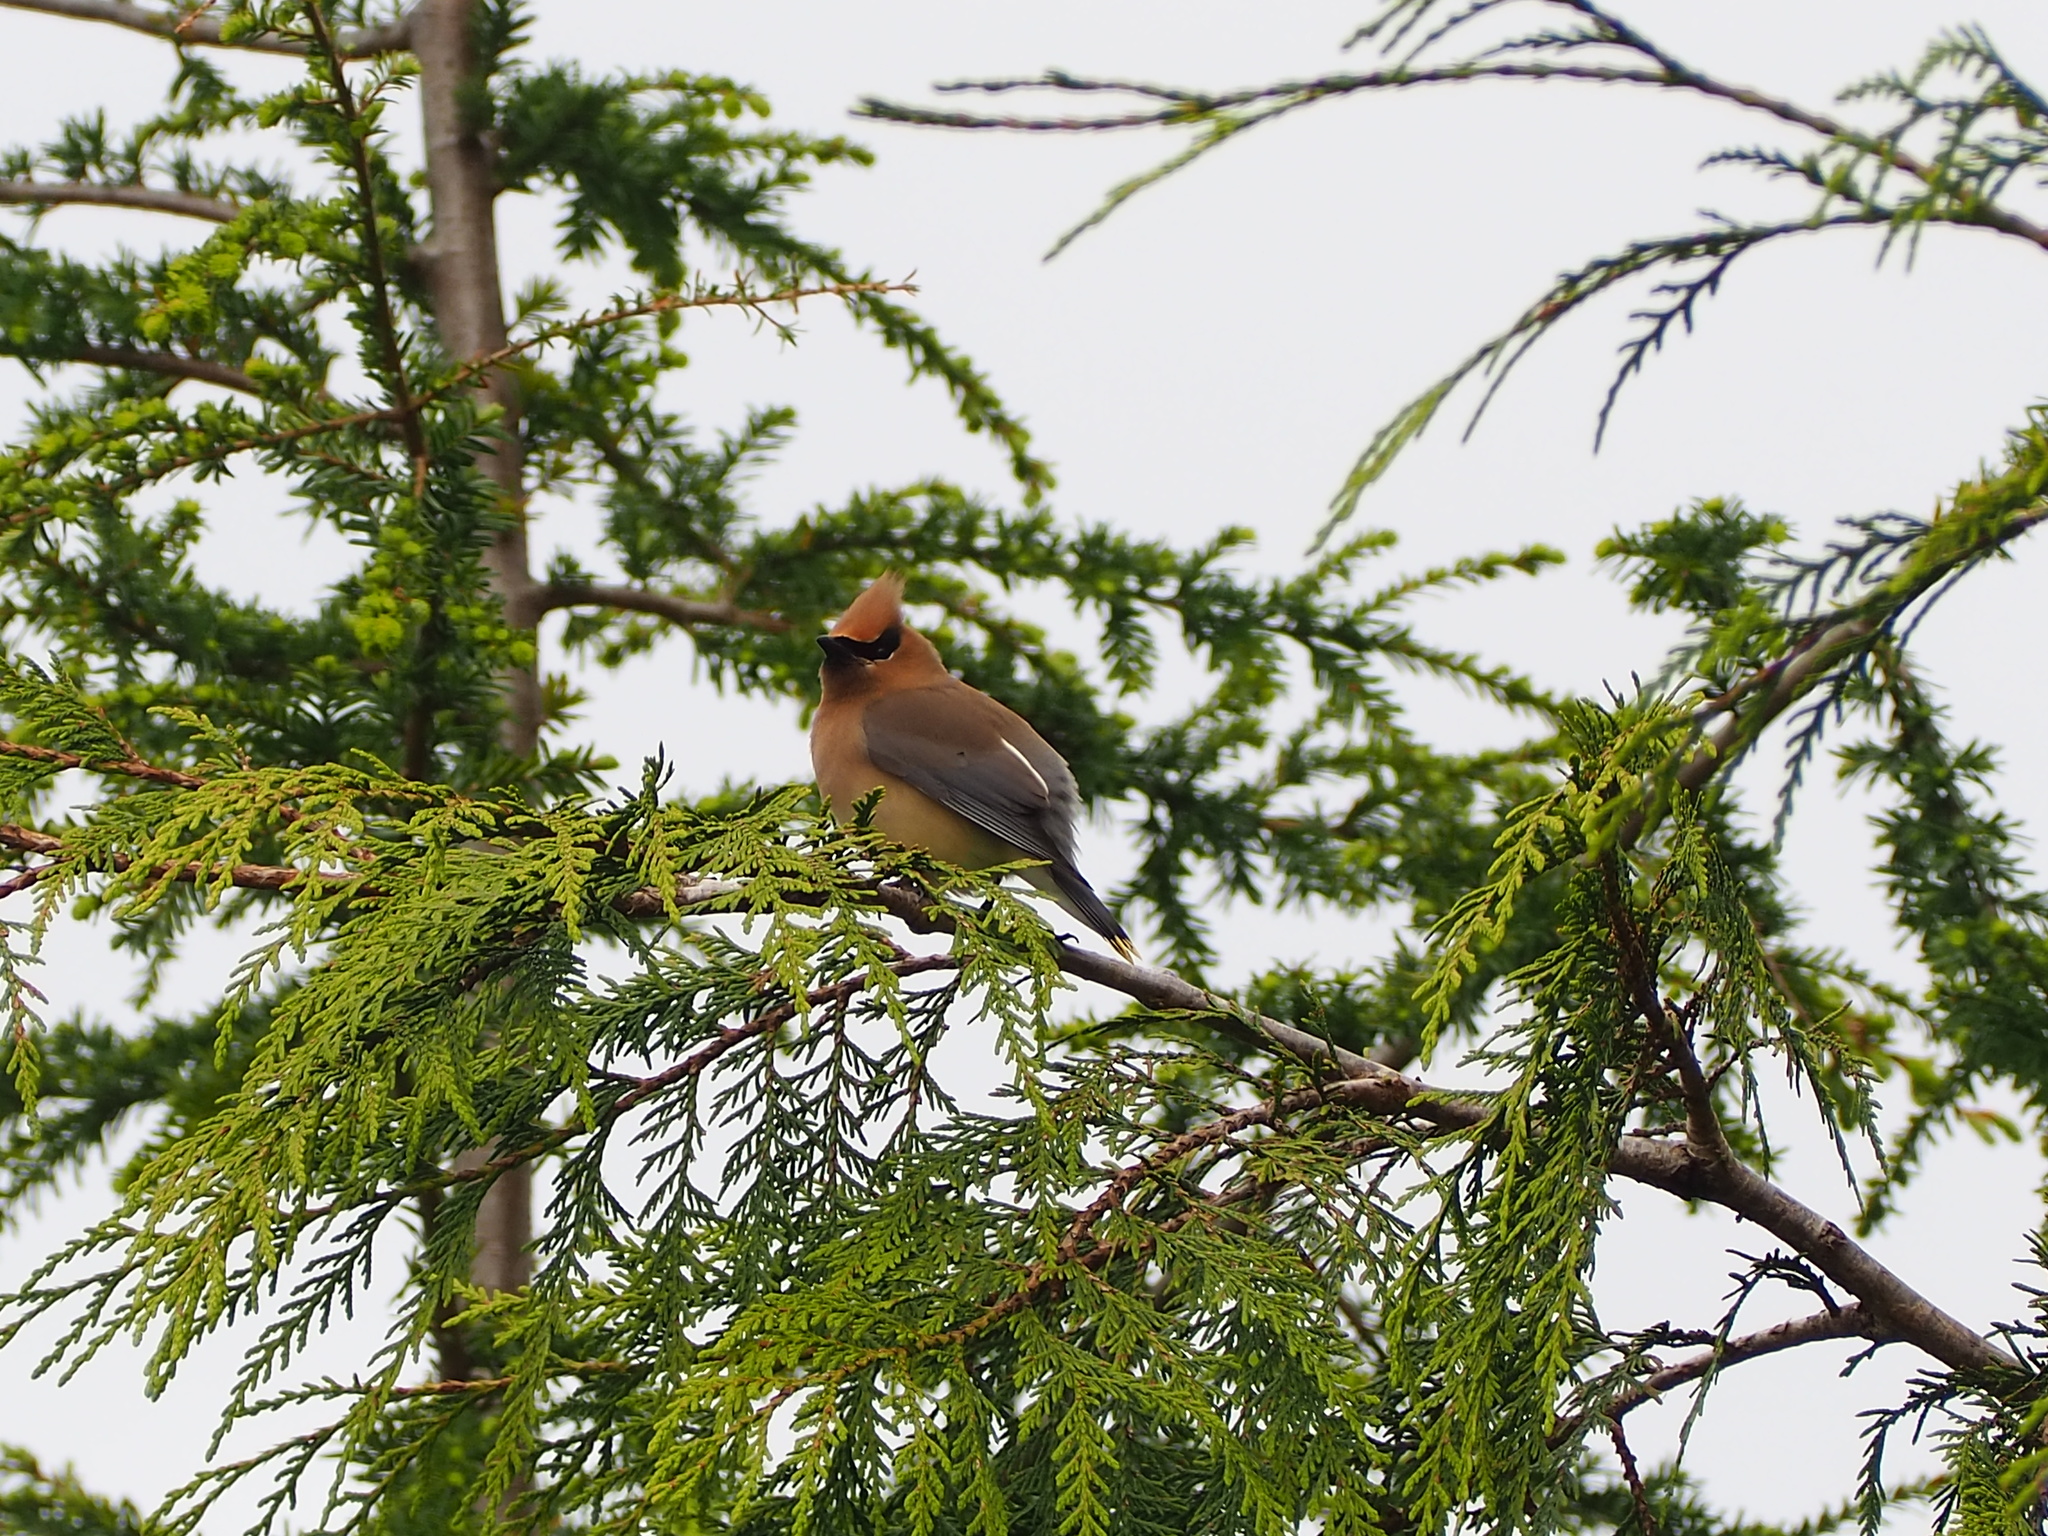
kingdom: Animalia
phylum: Chordata
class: Aves
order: Passeriformes
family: Bombycillidae
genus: Bombycilla
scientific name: Bombycilla cedrorum
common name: Cedar waxwing
